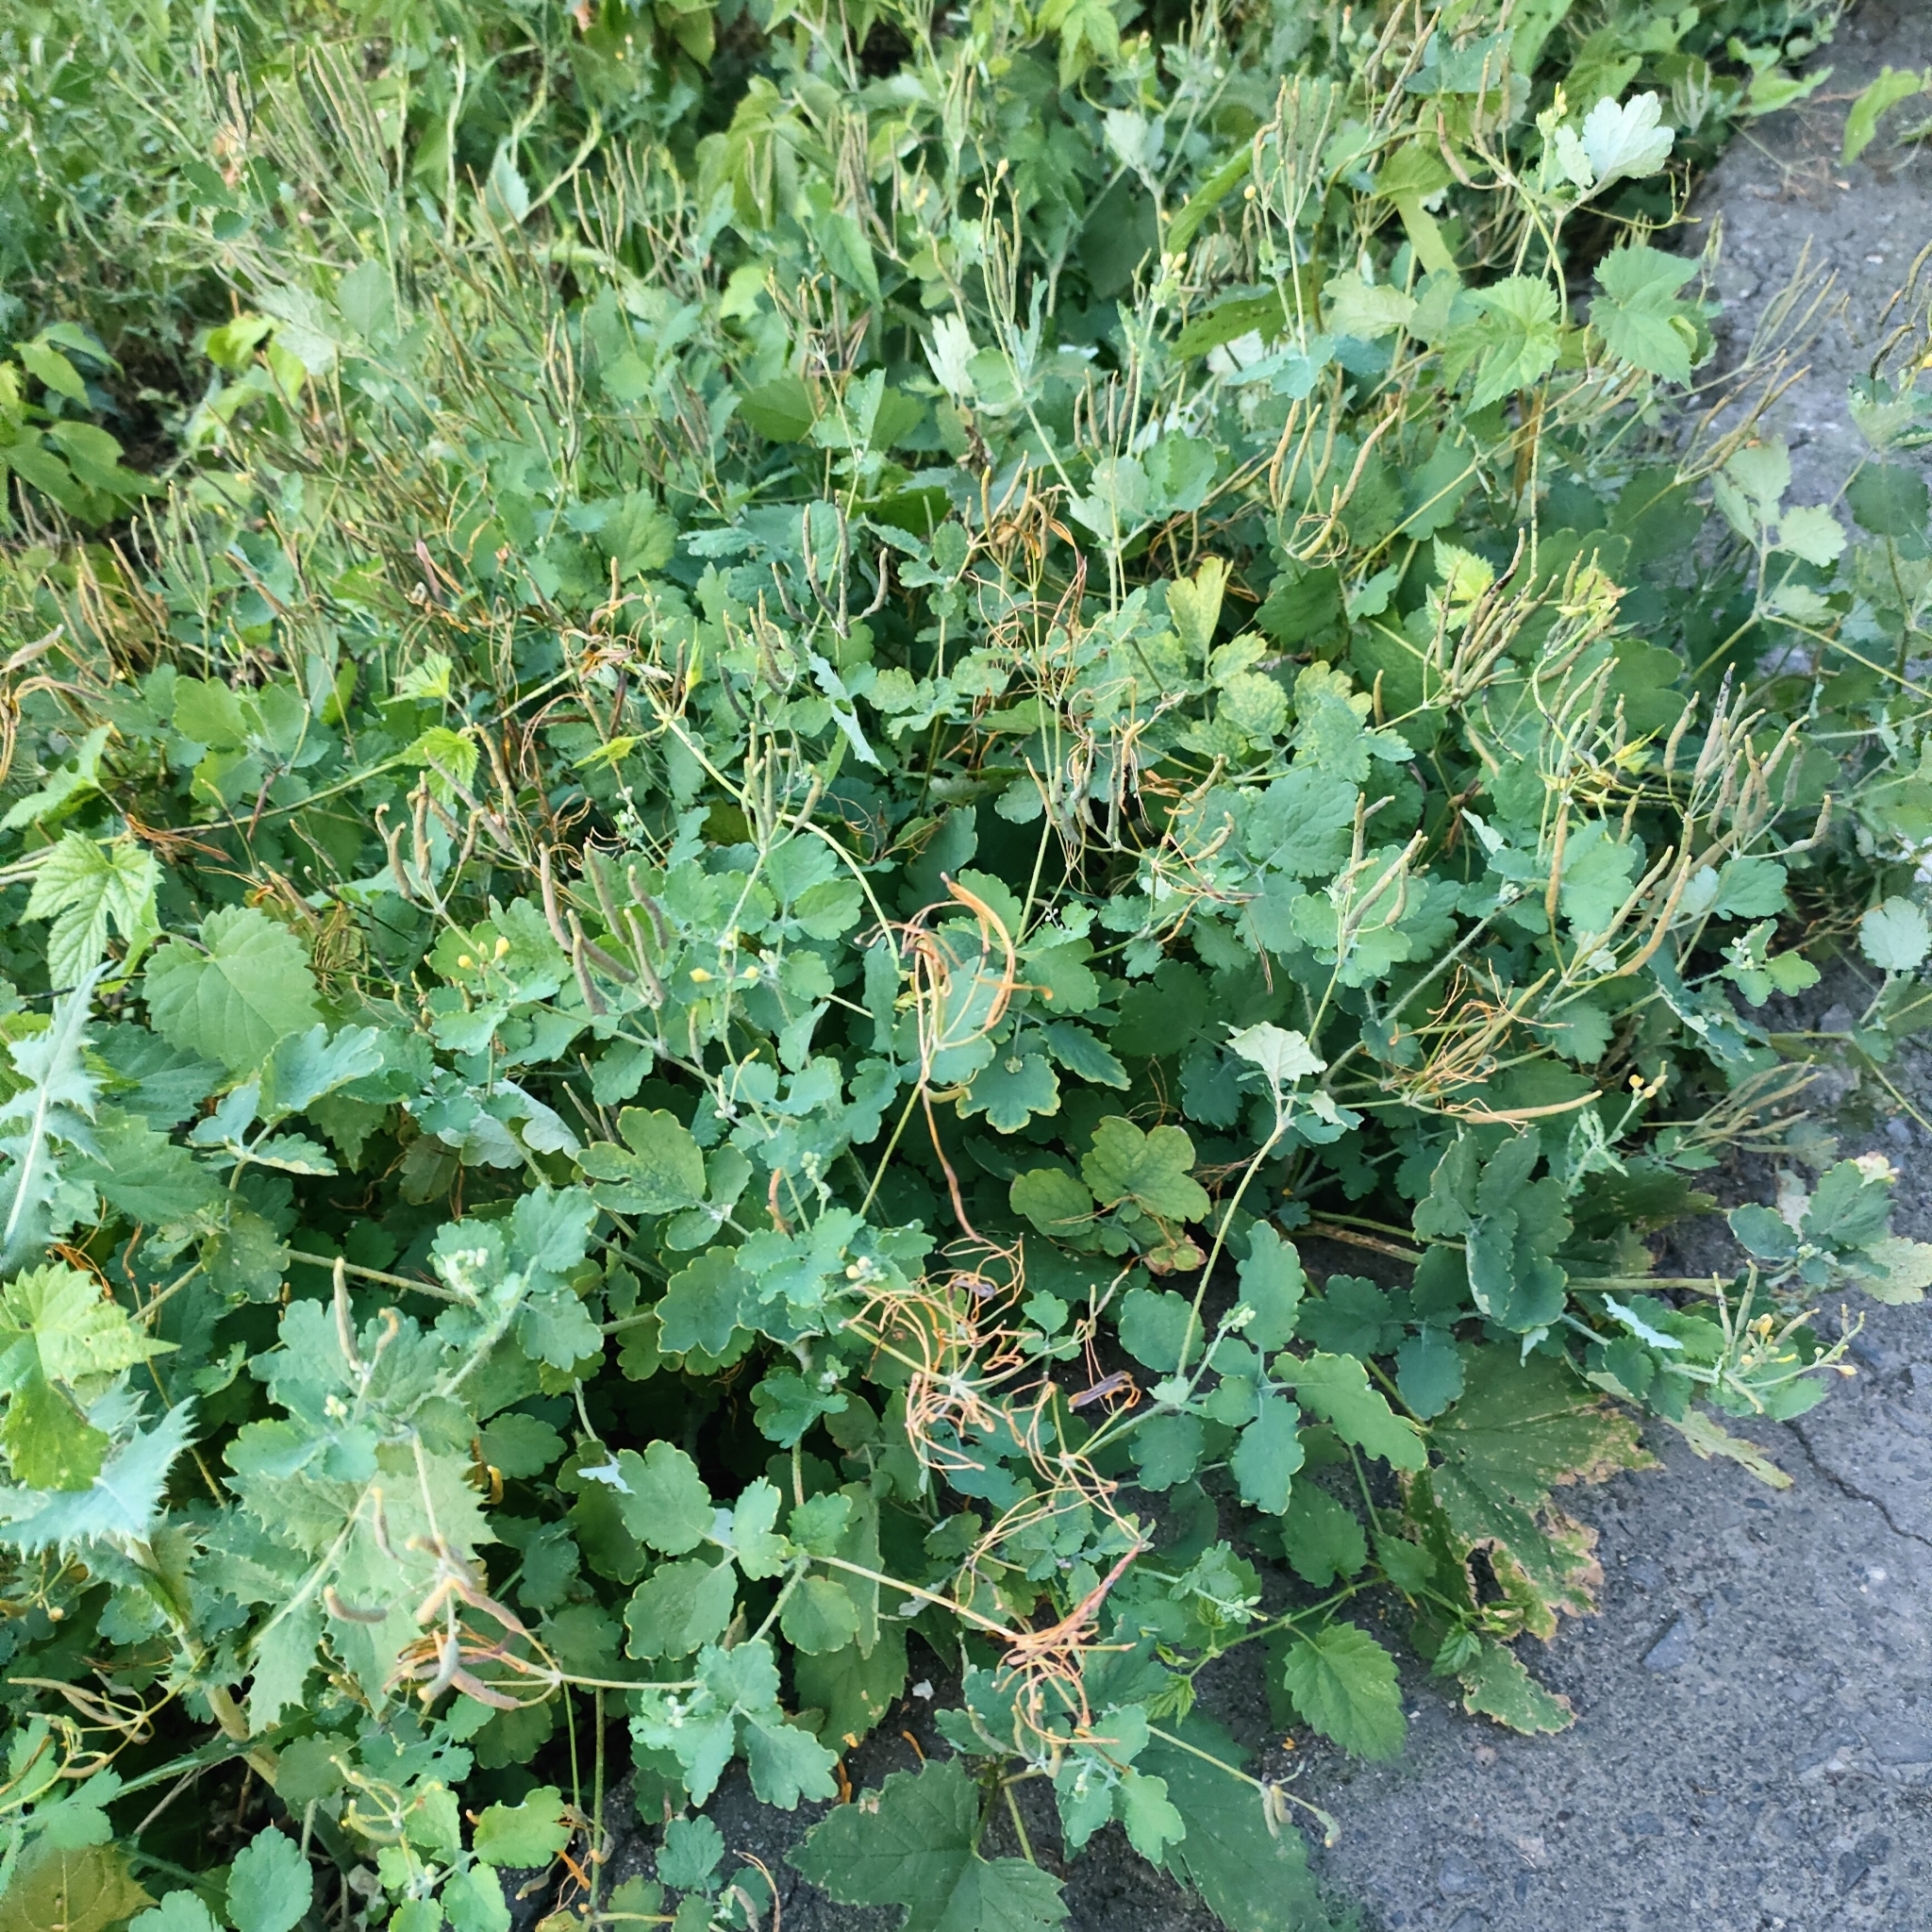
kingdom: Plantae
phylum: Tracheophyta
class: Magnoliopsida
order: Ranunculales
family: Papaveraceae
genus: Chelidonium
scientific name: Chelidonium majus
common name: Greater celandine
